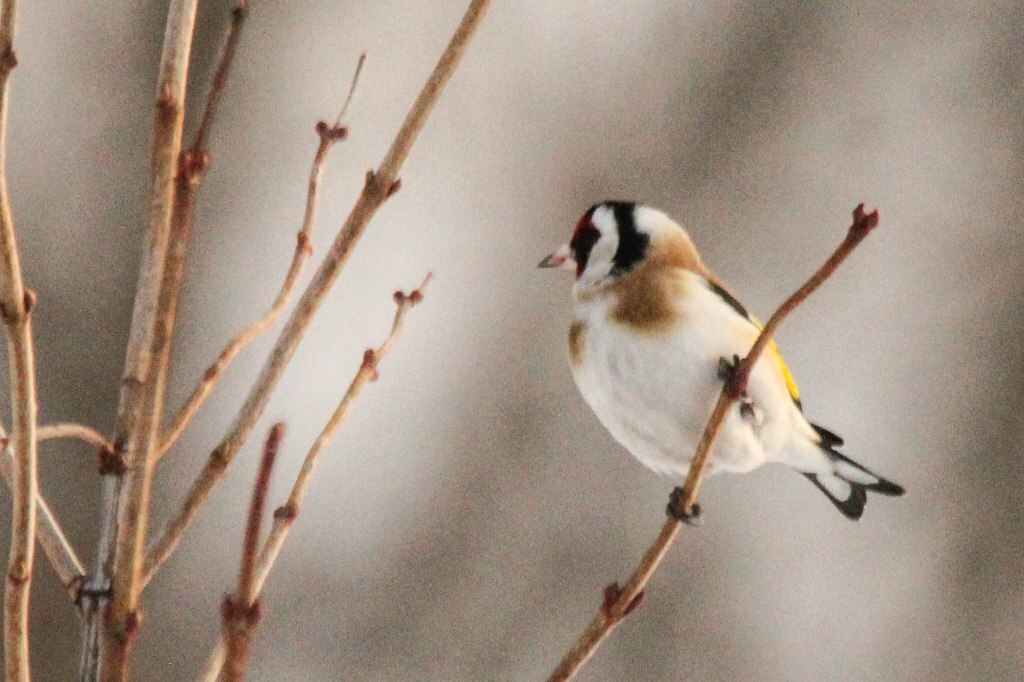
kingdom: Animalia
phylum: Chordata
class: Aves
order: Passeriformes
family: Fringillidae
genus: Carduelis
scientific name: Carduelis carduelis
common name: European goldfinch
